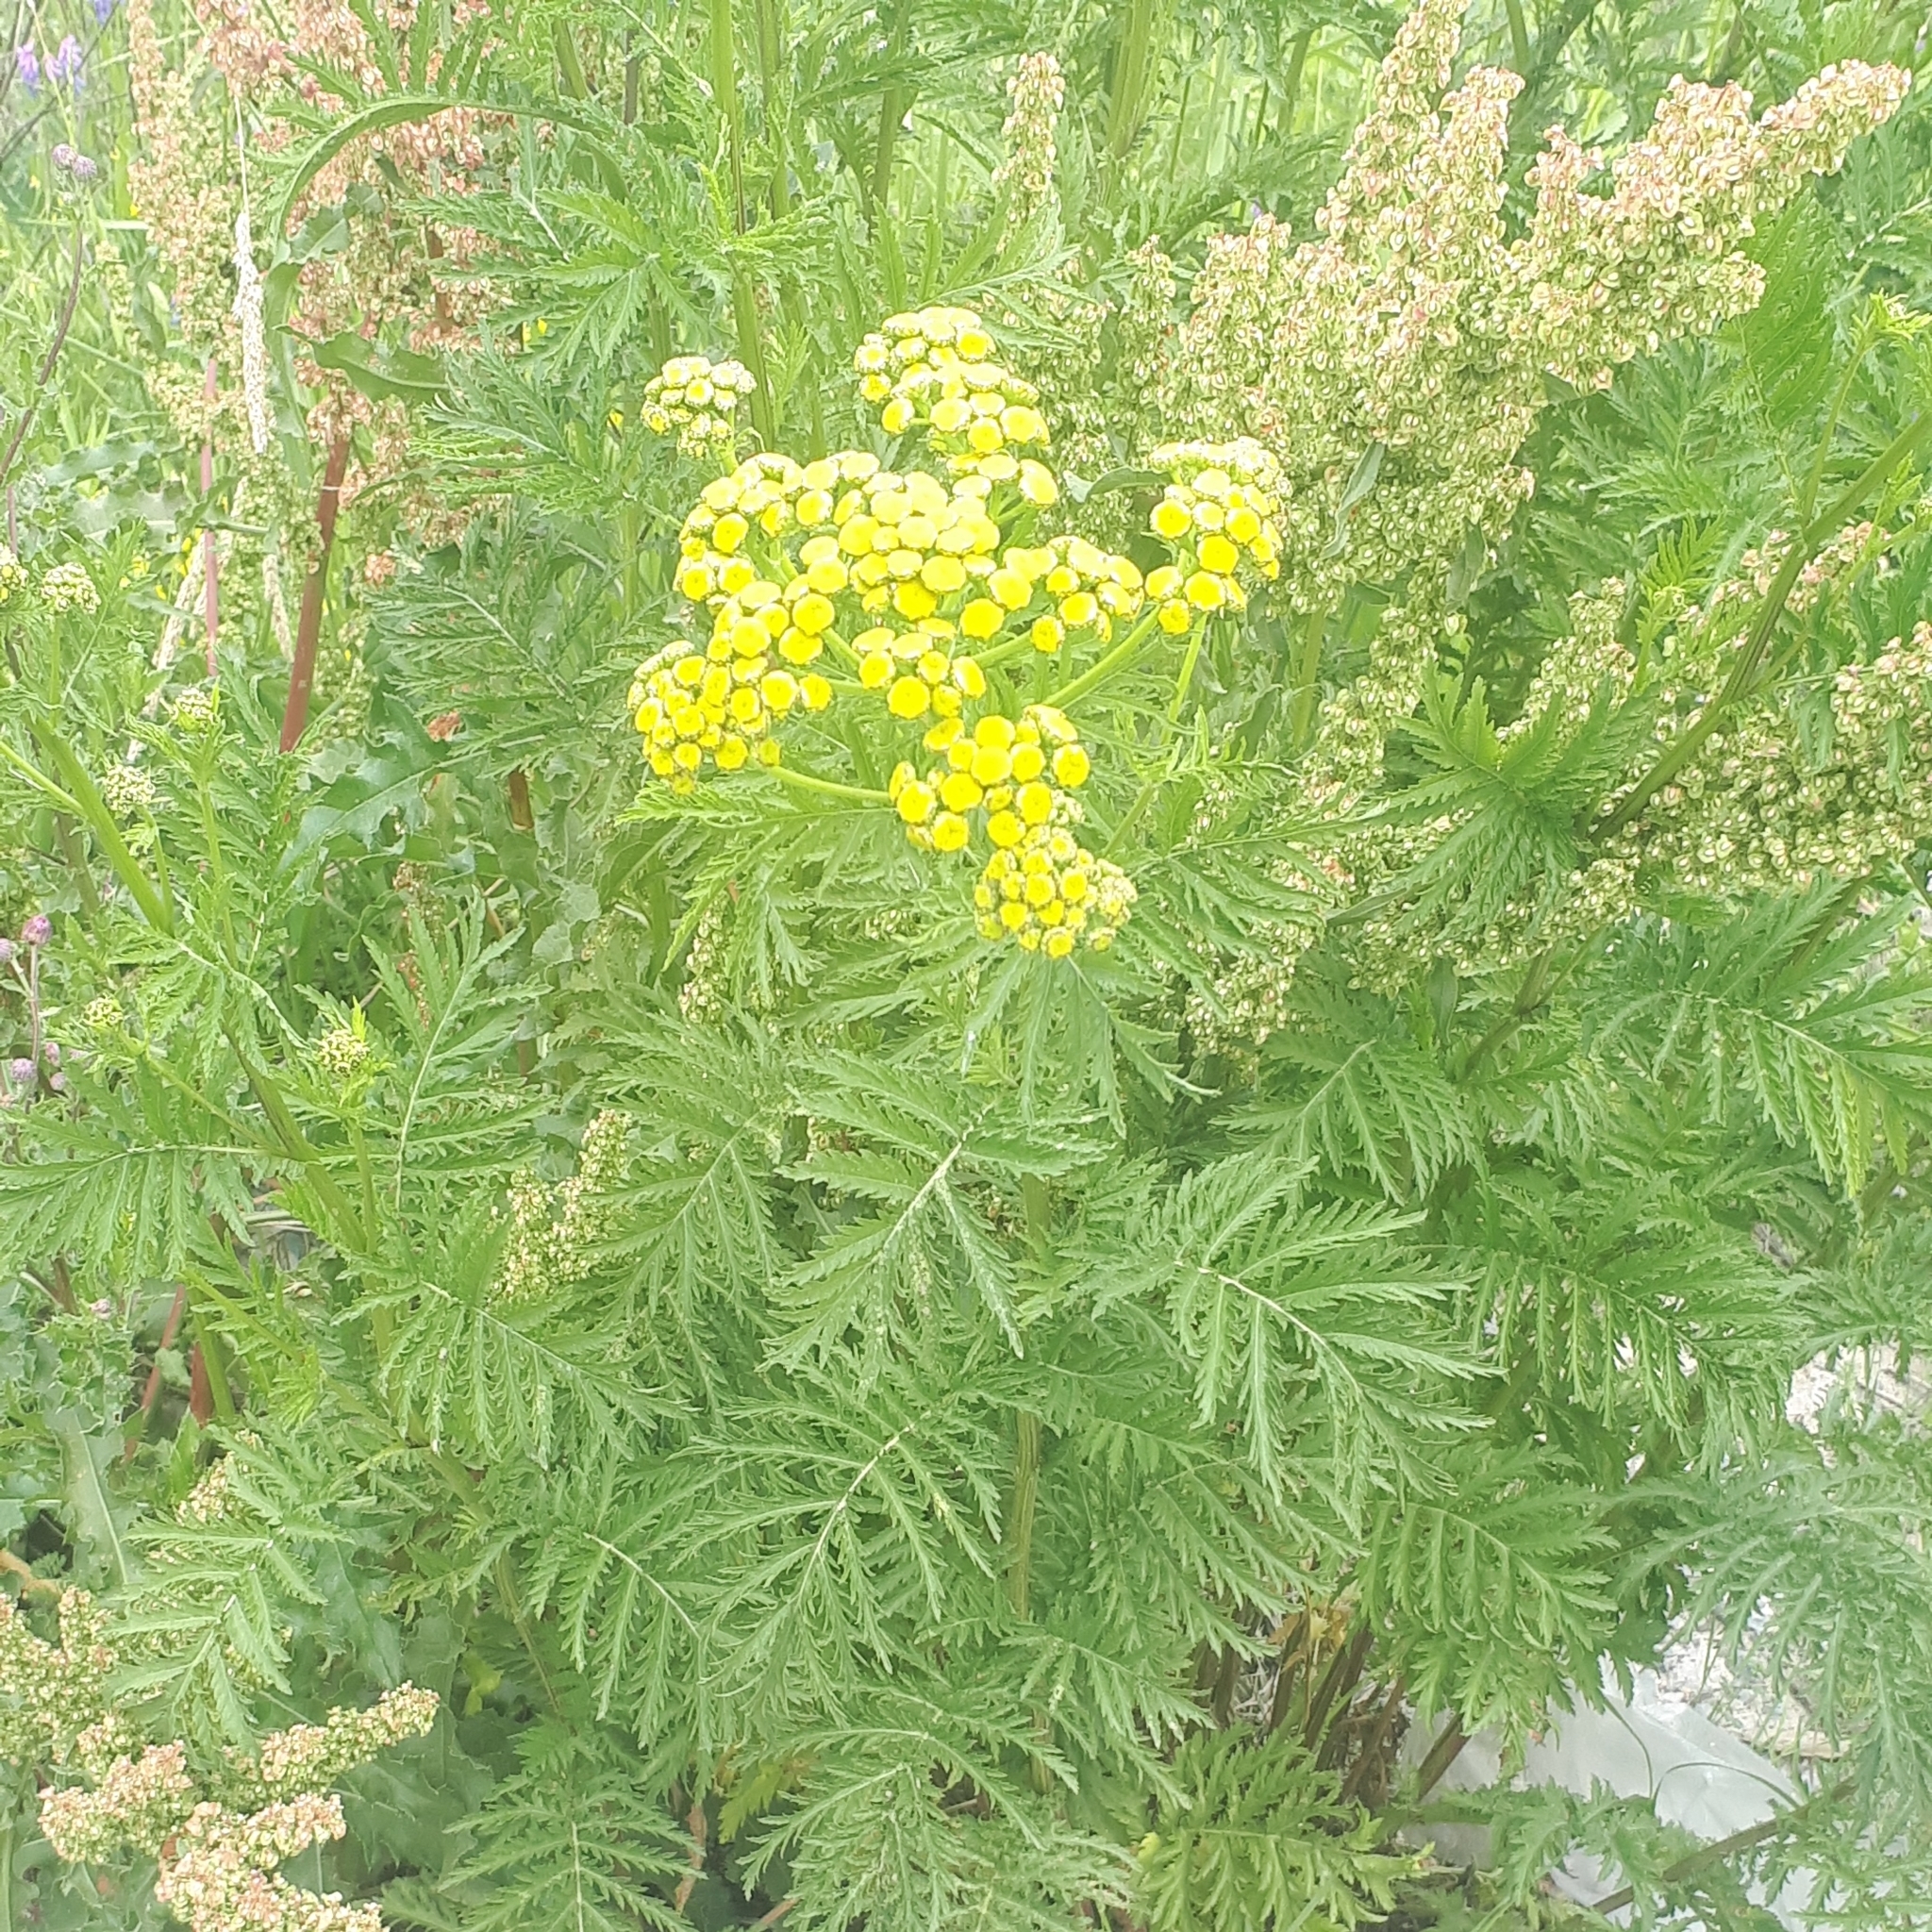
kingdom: Plantae
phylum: Tracheophyta
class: Magnoliopsida
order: Asterales
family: Asteraceae
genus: Tanacetum
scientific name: Tanacetum vulgare
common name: Common tansy
